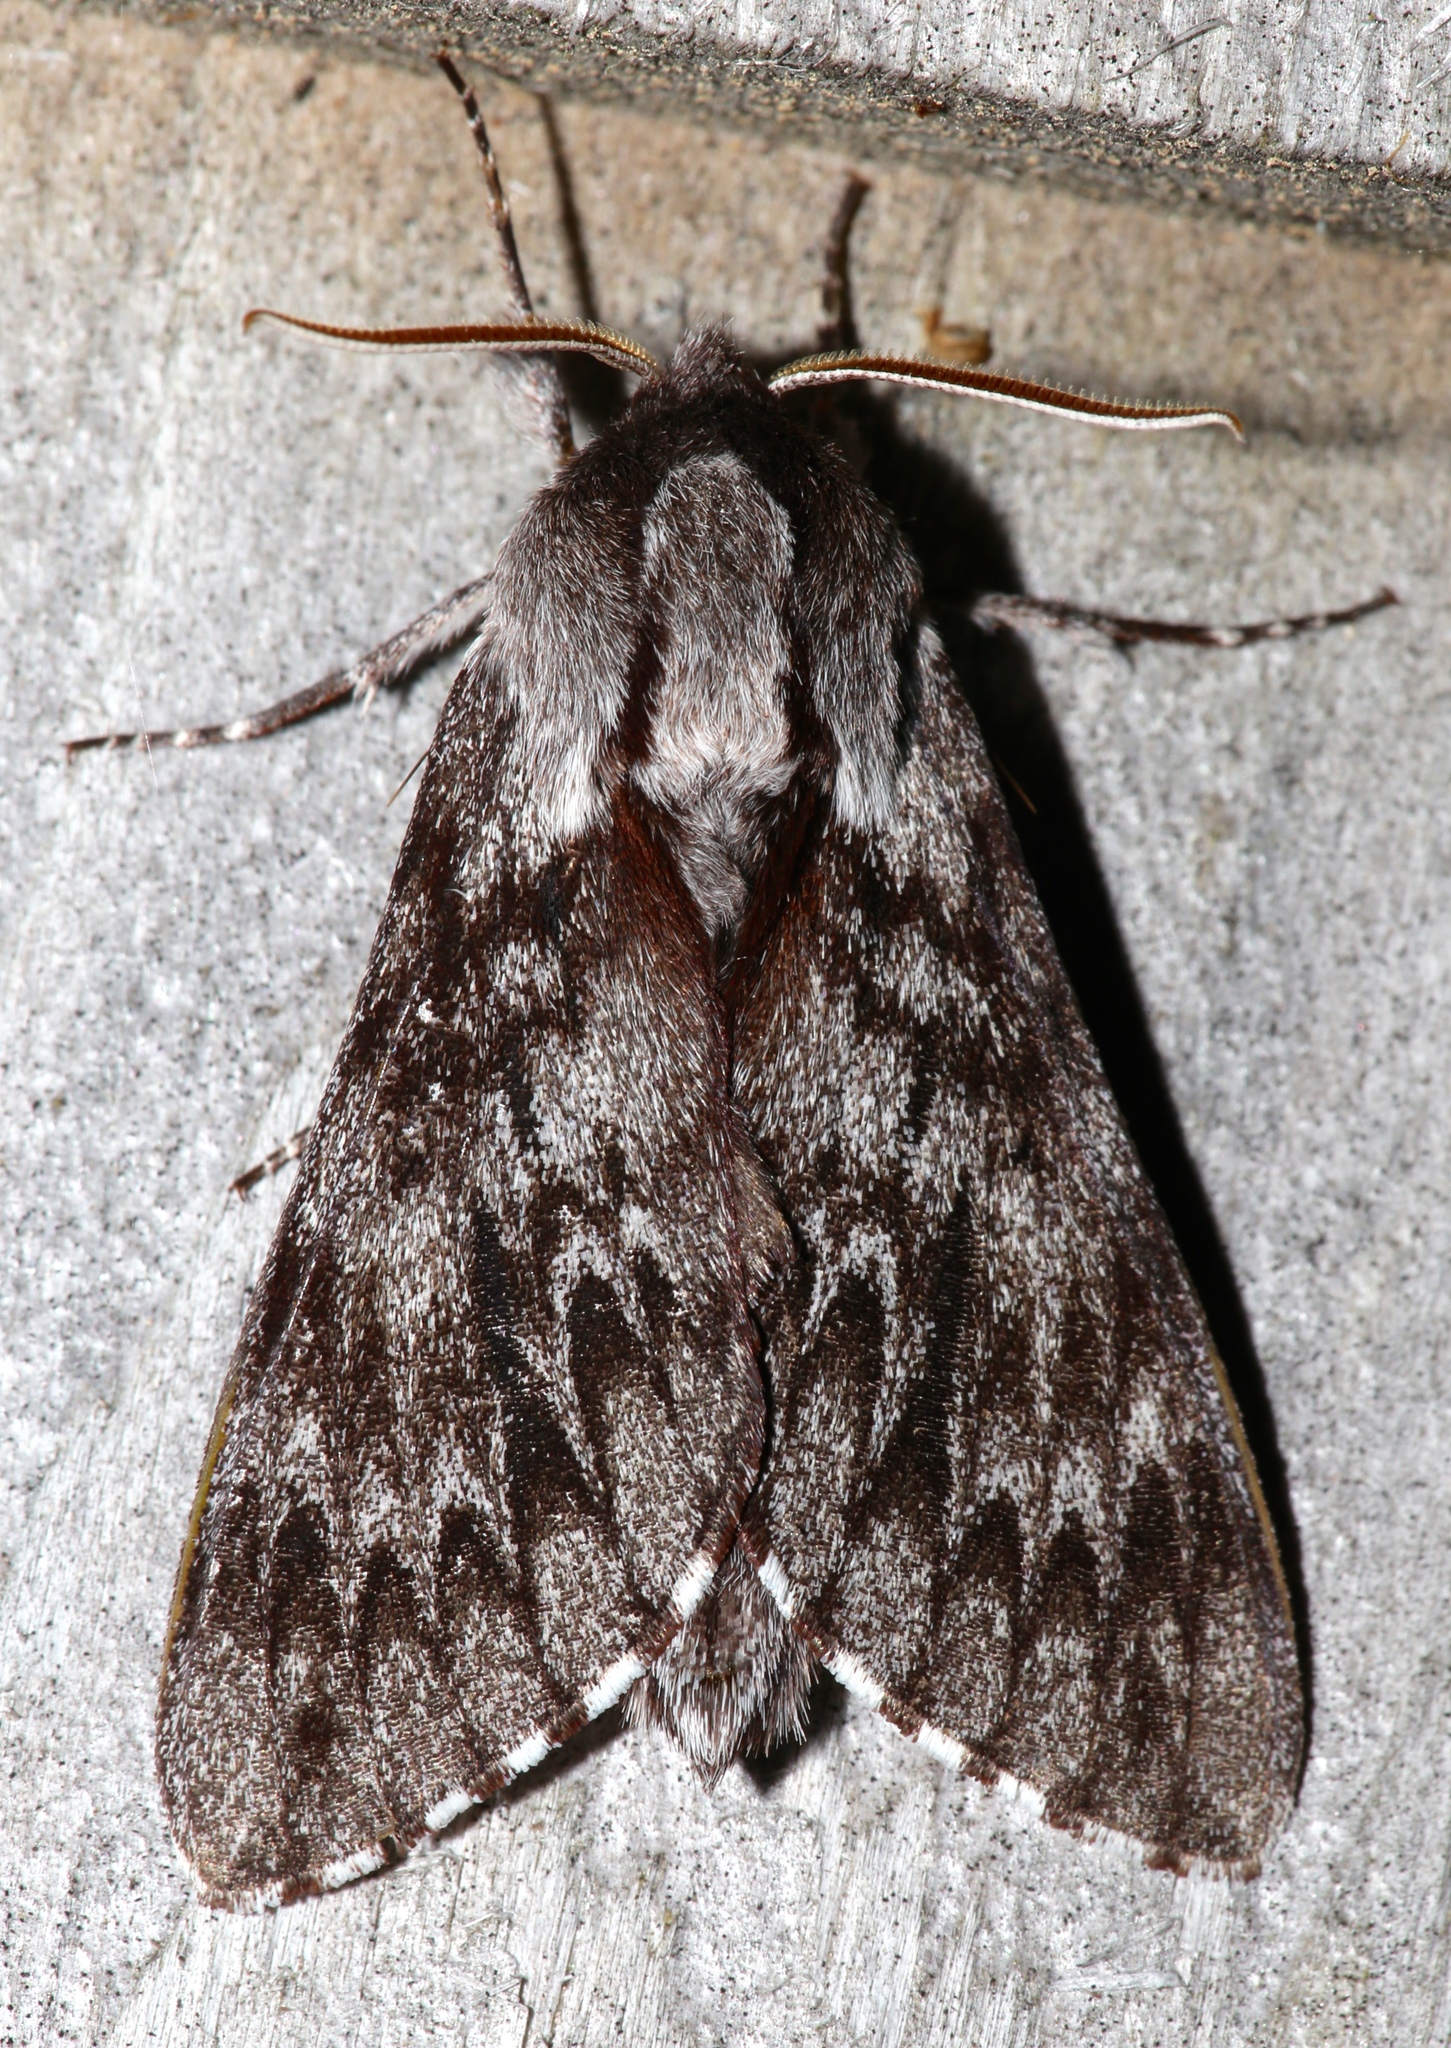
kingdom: Animalia
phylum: Arthropoda
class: Insecta
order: Lepidoptera
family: Sphingidae
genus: Lapara
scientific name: Lapara bombycoides
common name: Northern pine sphinx
